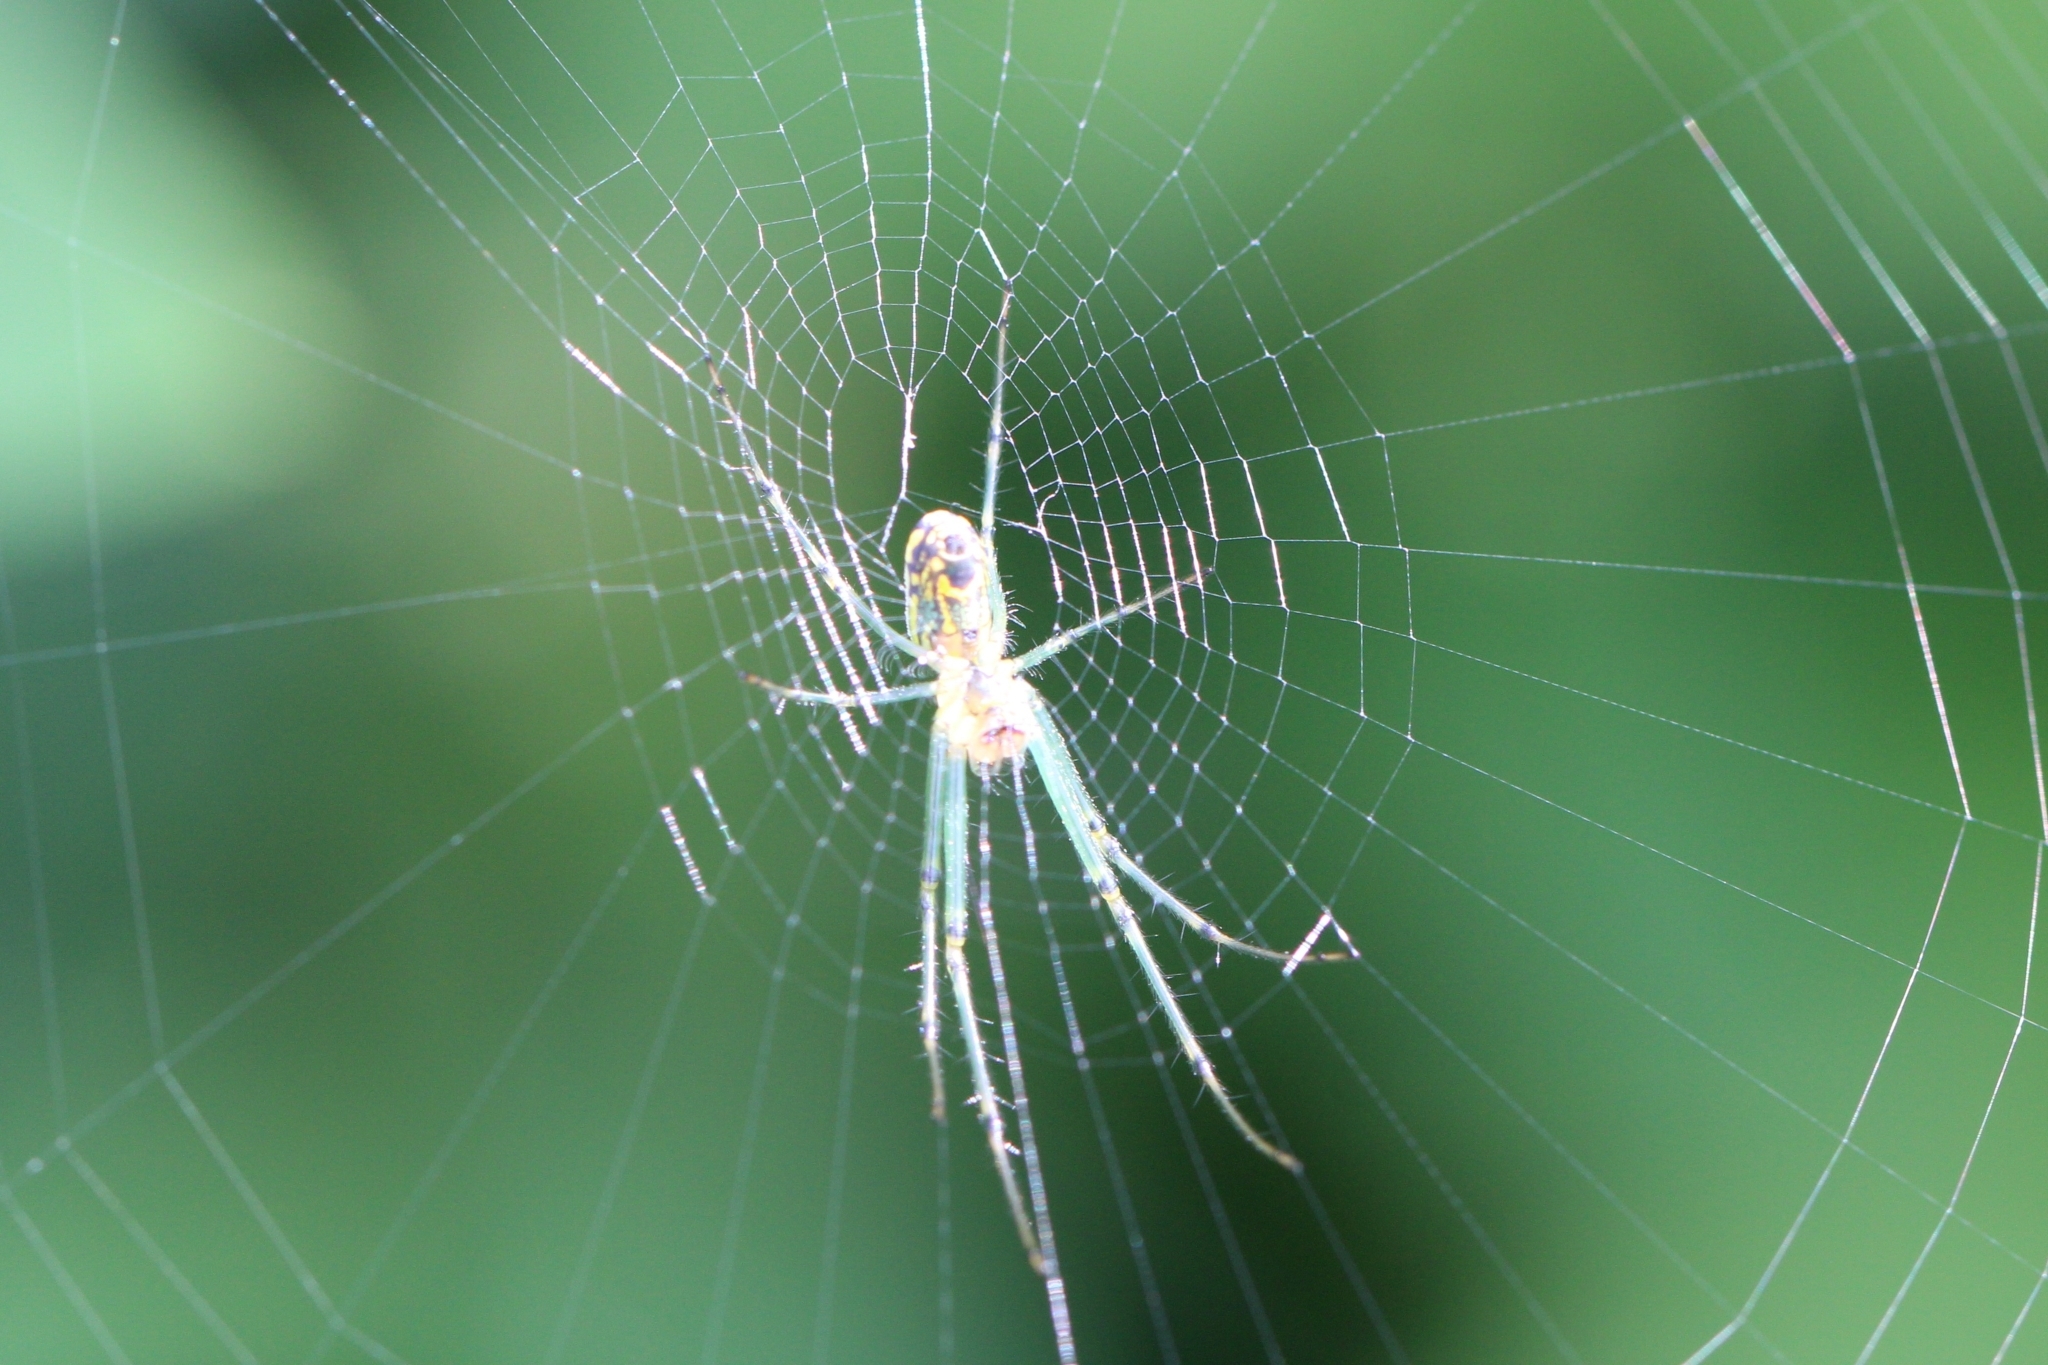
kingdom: Animalia
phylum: Arthropoda
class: Arachnida
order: Araneae
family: Tetragnathidae
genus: Leucauge
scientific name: Leucauge venusta
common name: Longjawed orb weavers
